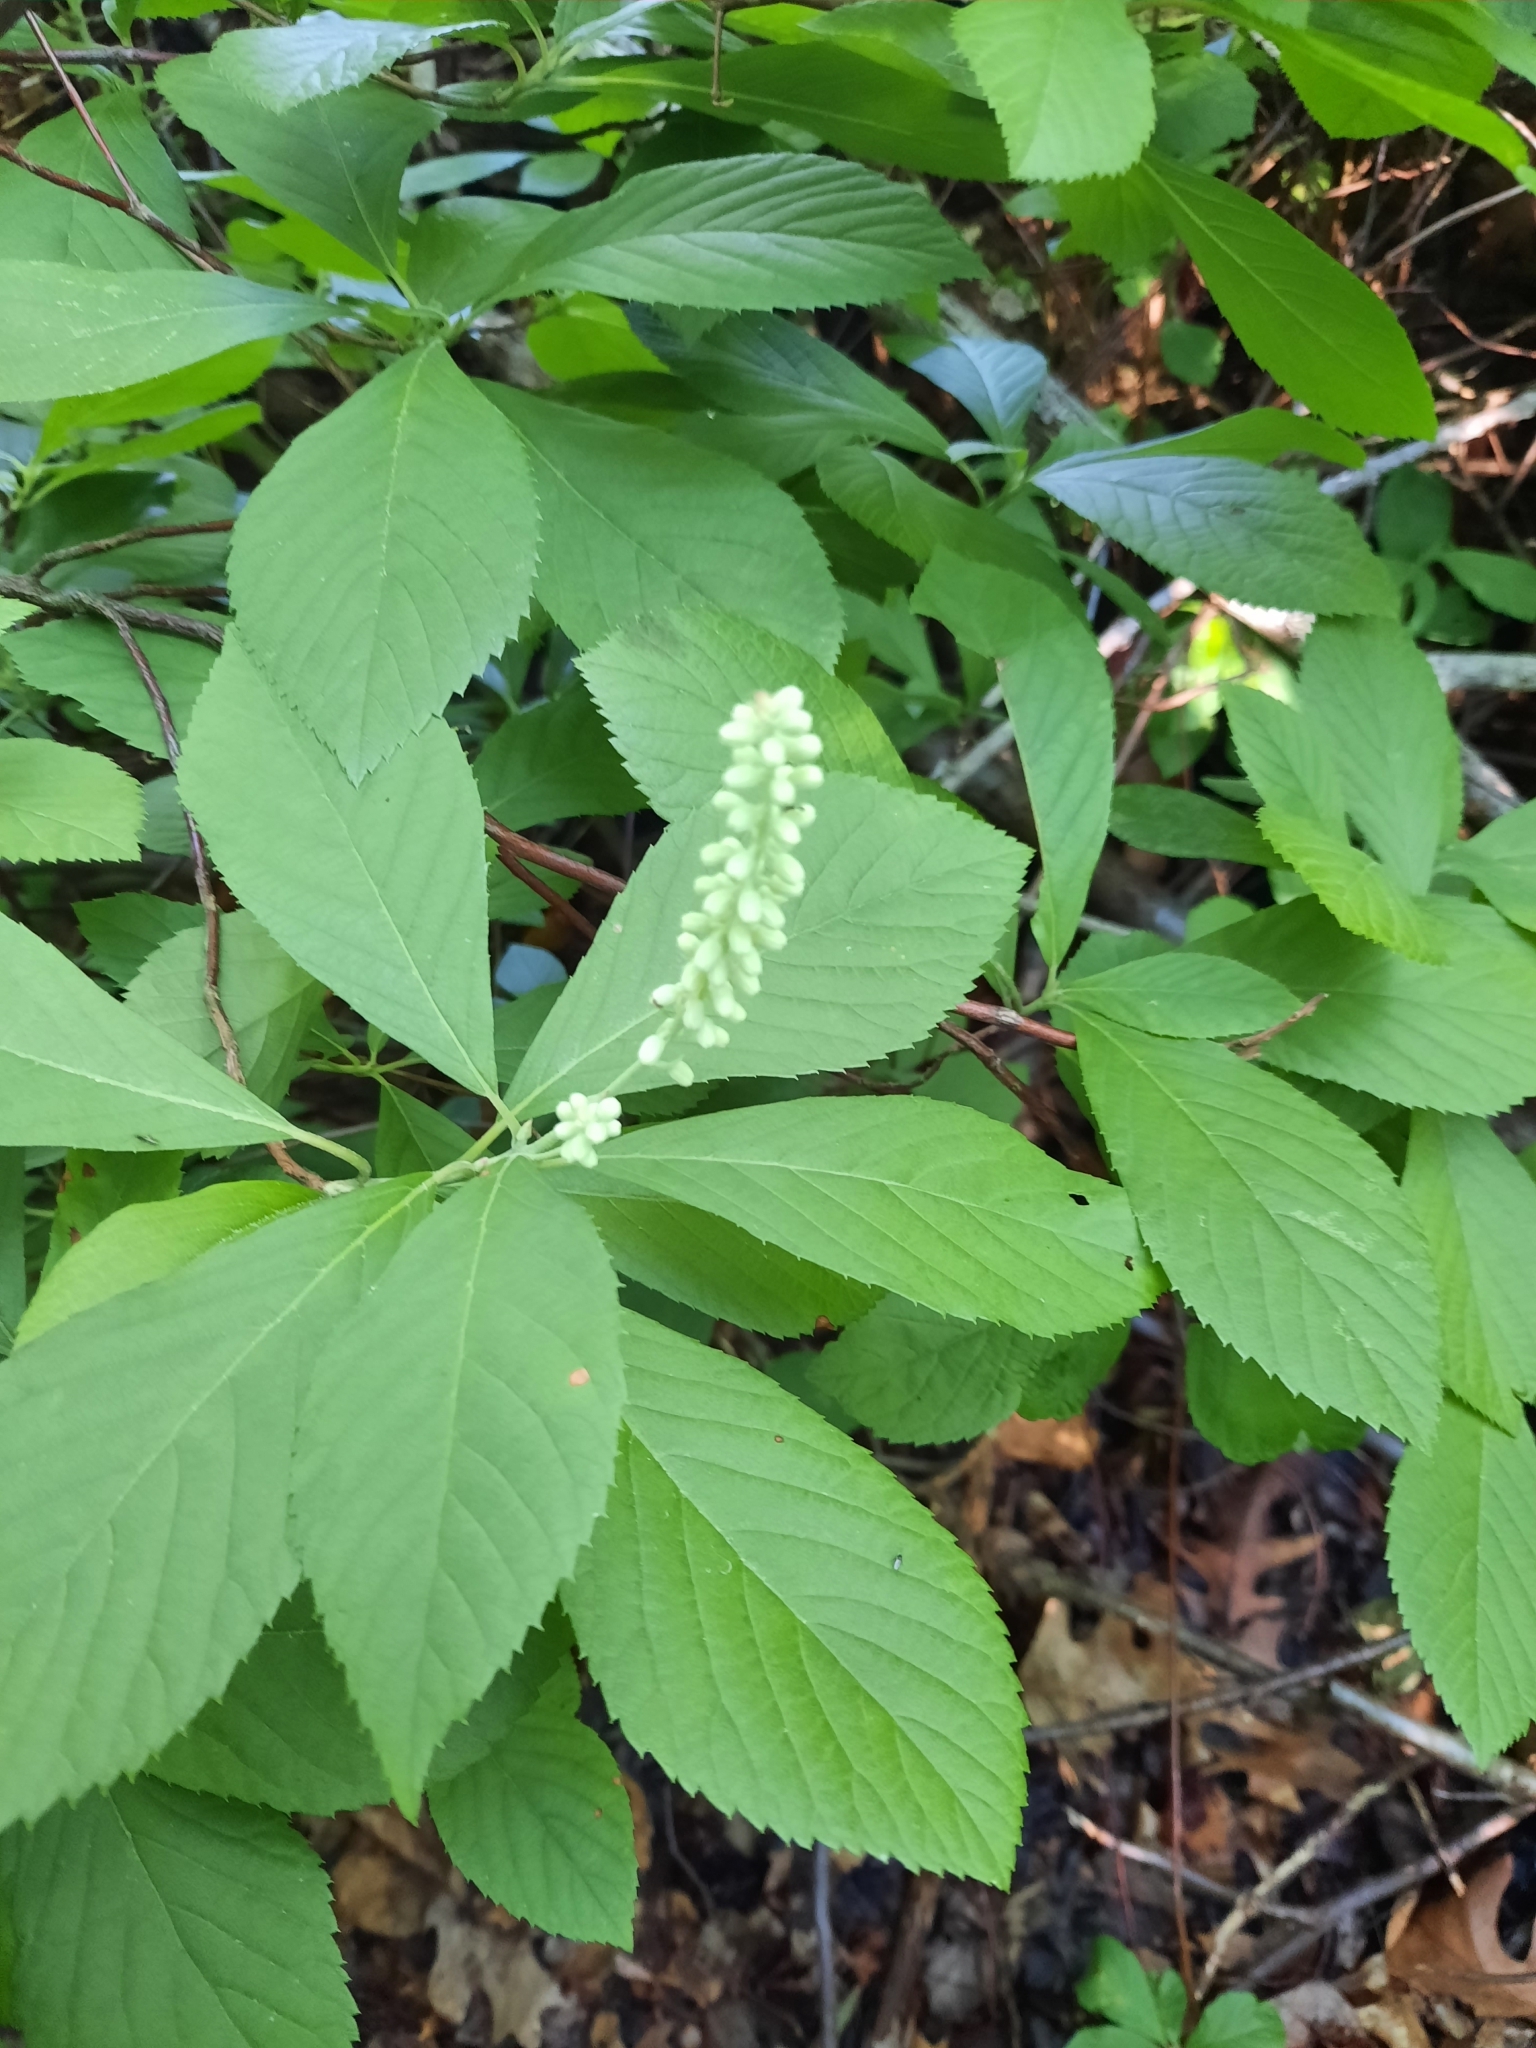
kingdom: Plantae
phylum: Tracheophyta
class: Magnoliopsida
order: Ericales
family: Clethraceae
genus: Clethra
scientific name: Clethra alnifolia
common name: Sweet pepperbush
